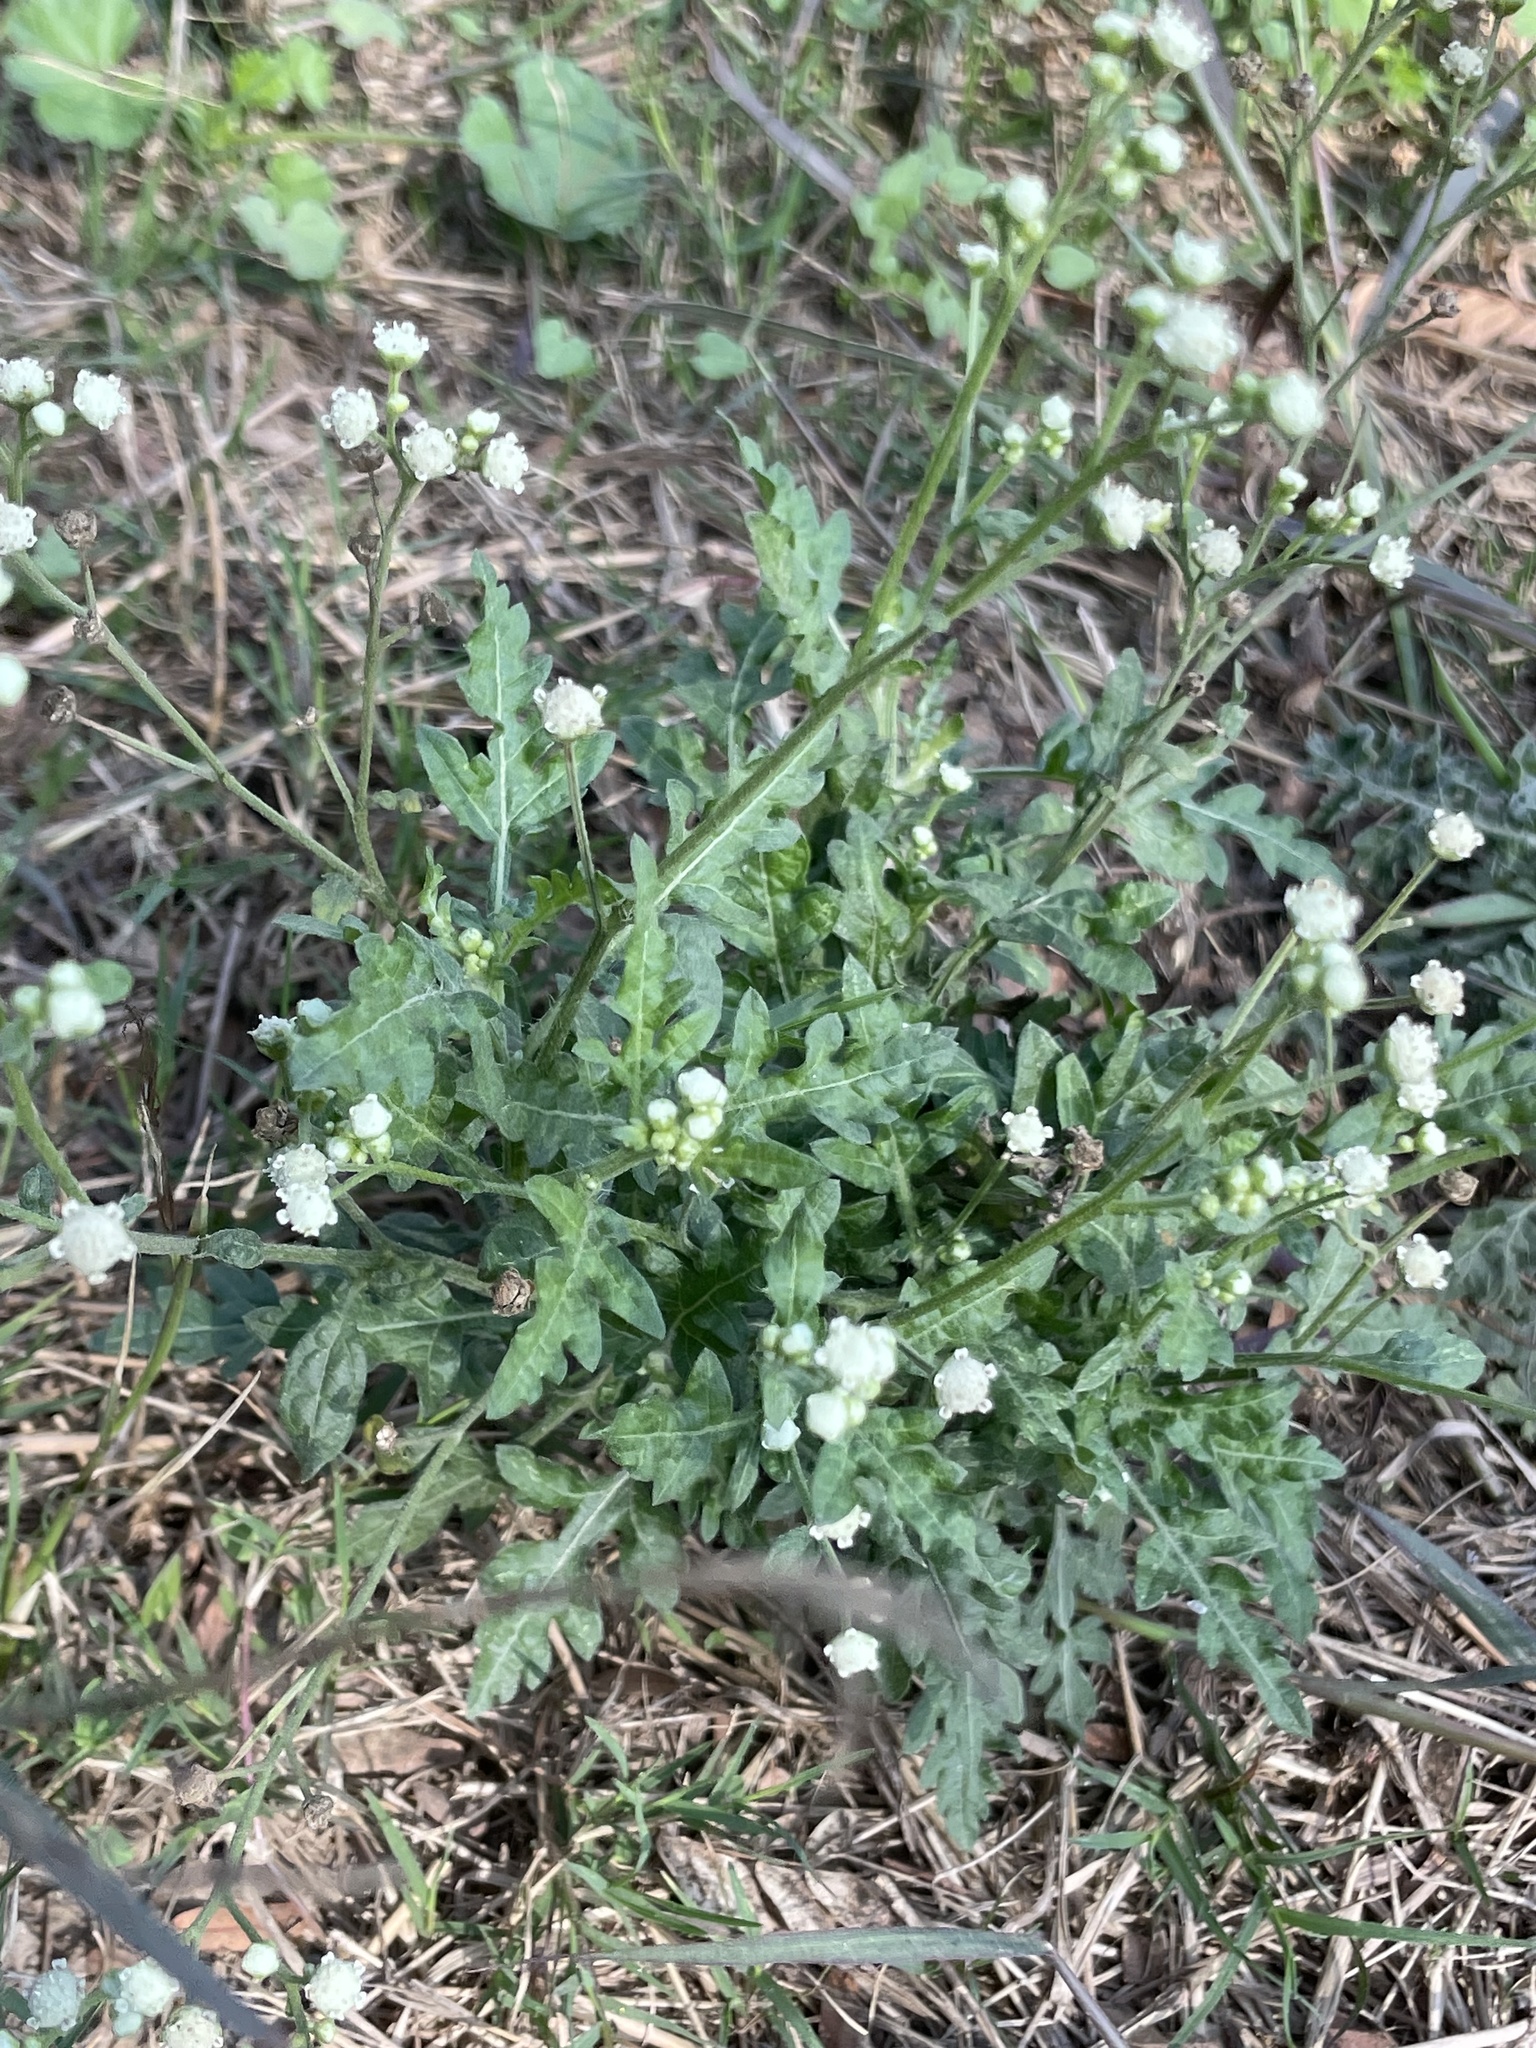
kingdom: Plantae
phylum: Tracheophyta
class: Magnoliopsida
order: Asterales
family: Asteraceae
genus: Parthenium
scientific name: Parthenium hysterophorus
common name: Santa maria feverfew
